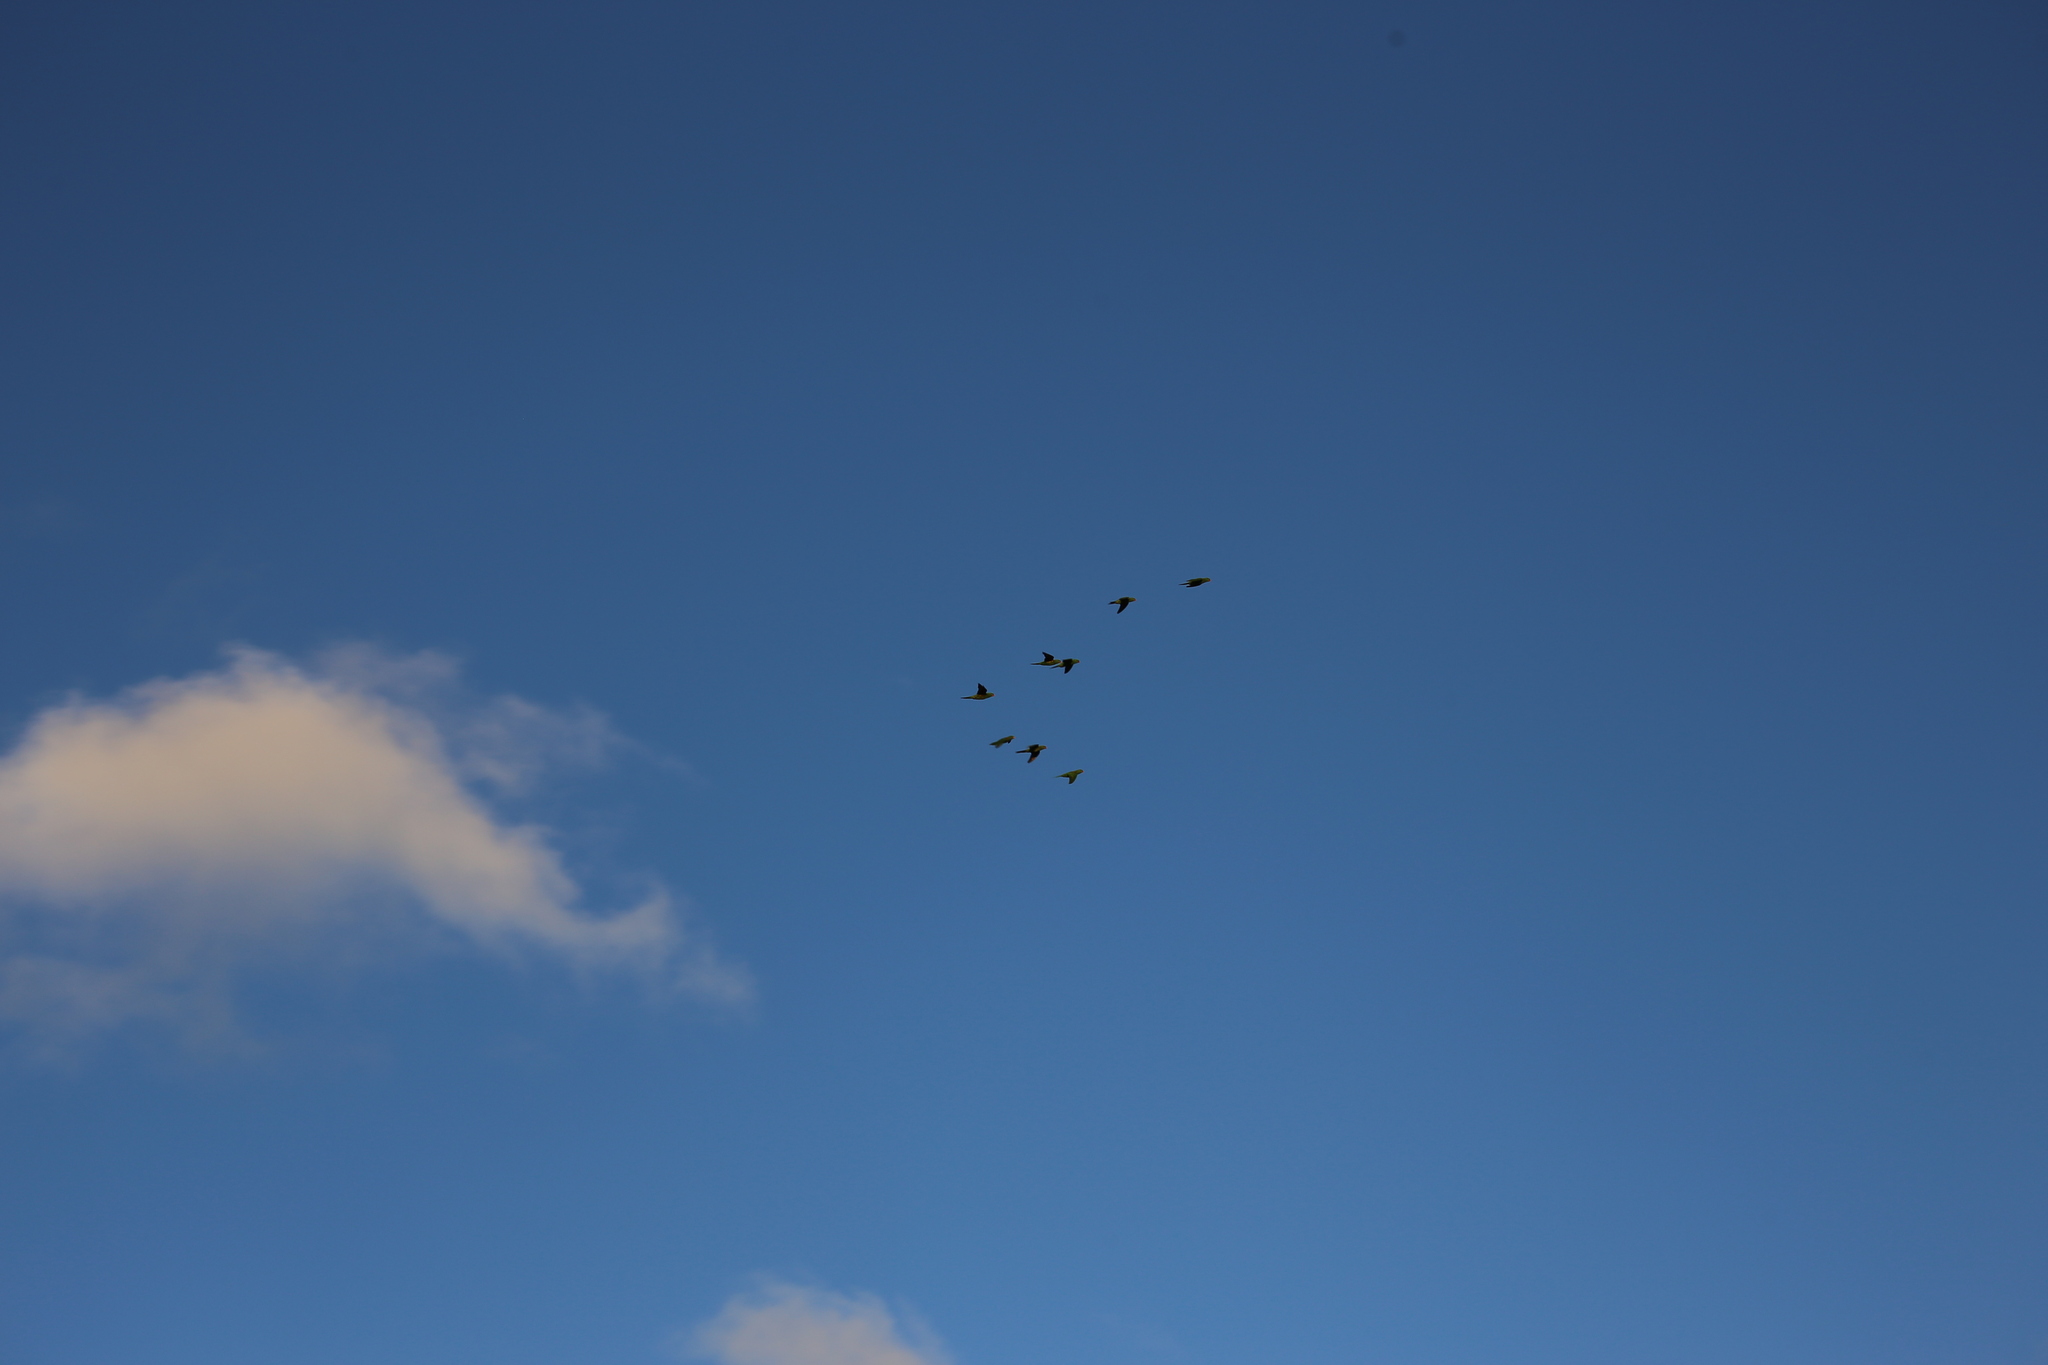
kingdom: Animalia
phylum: Chordata
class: Aves
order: Psittaciformes
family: Psittacidae
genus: Trichoglossus
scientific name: Trichoglossus chlorolepidotus
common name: Scaly-breasted lorikeet
